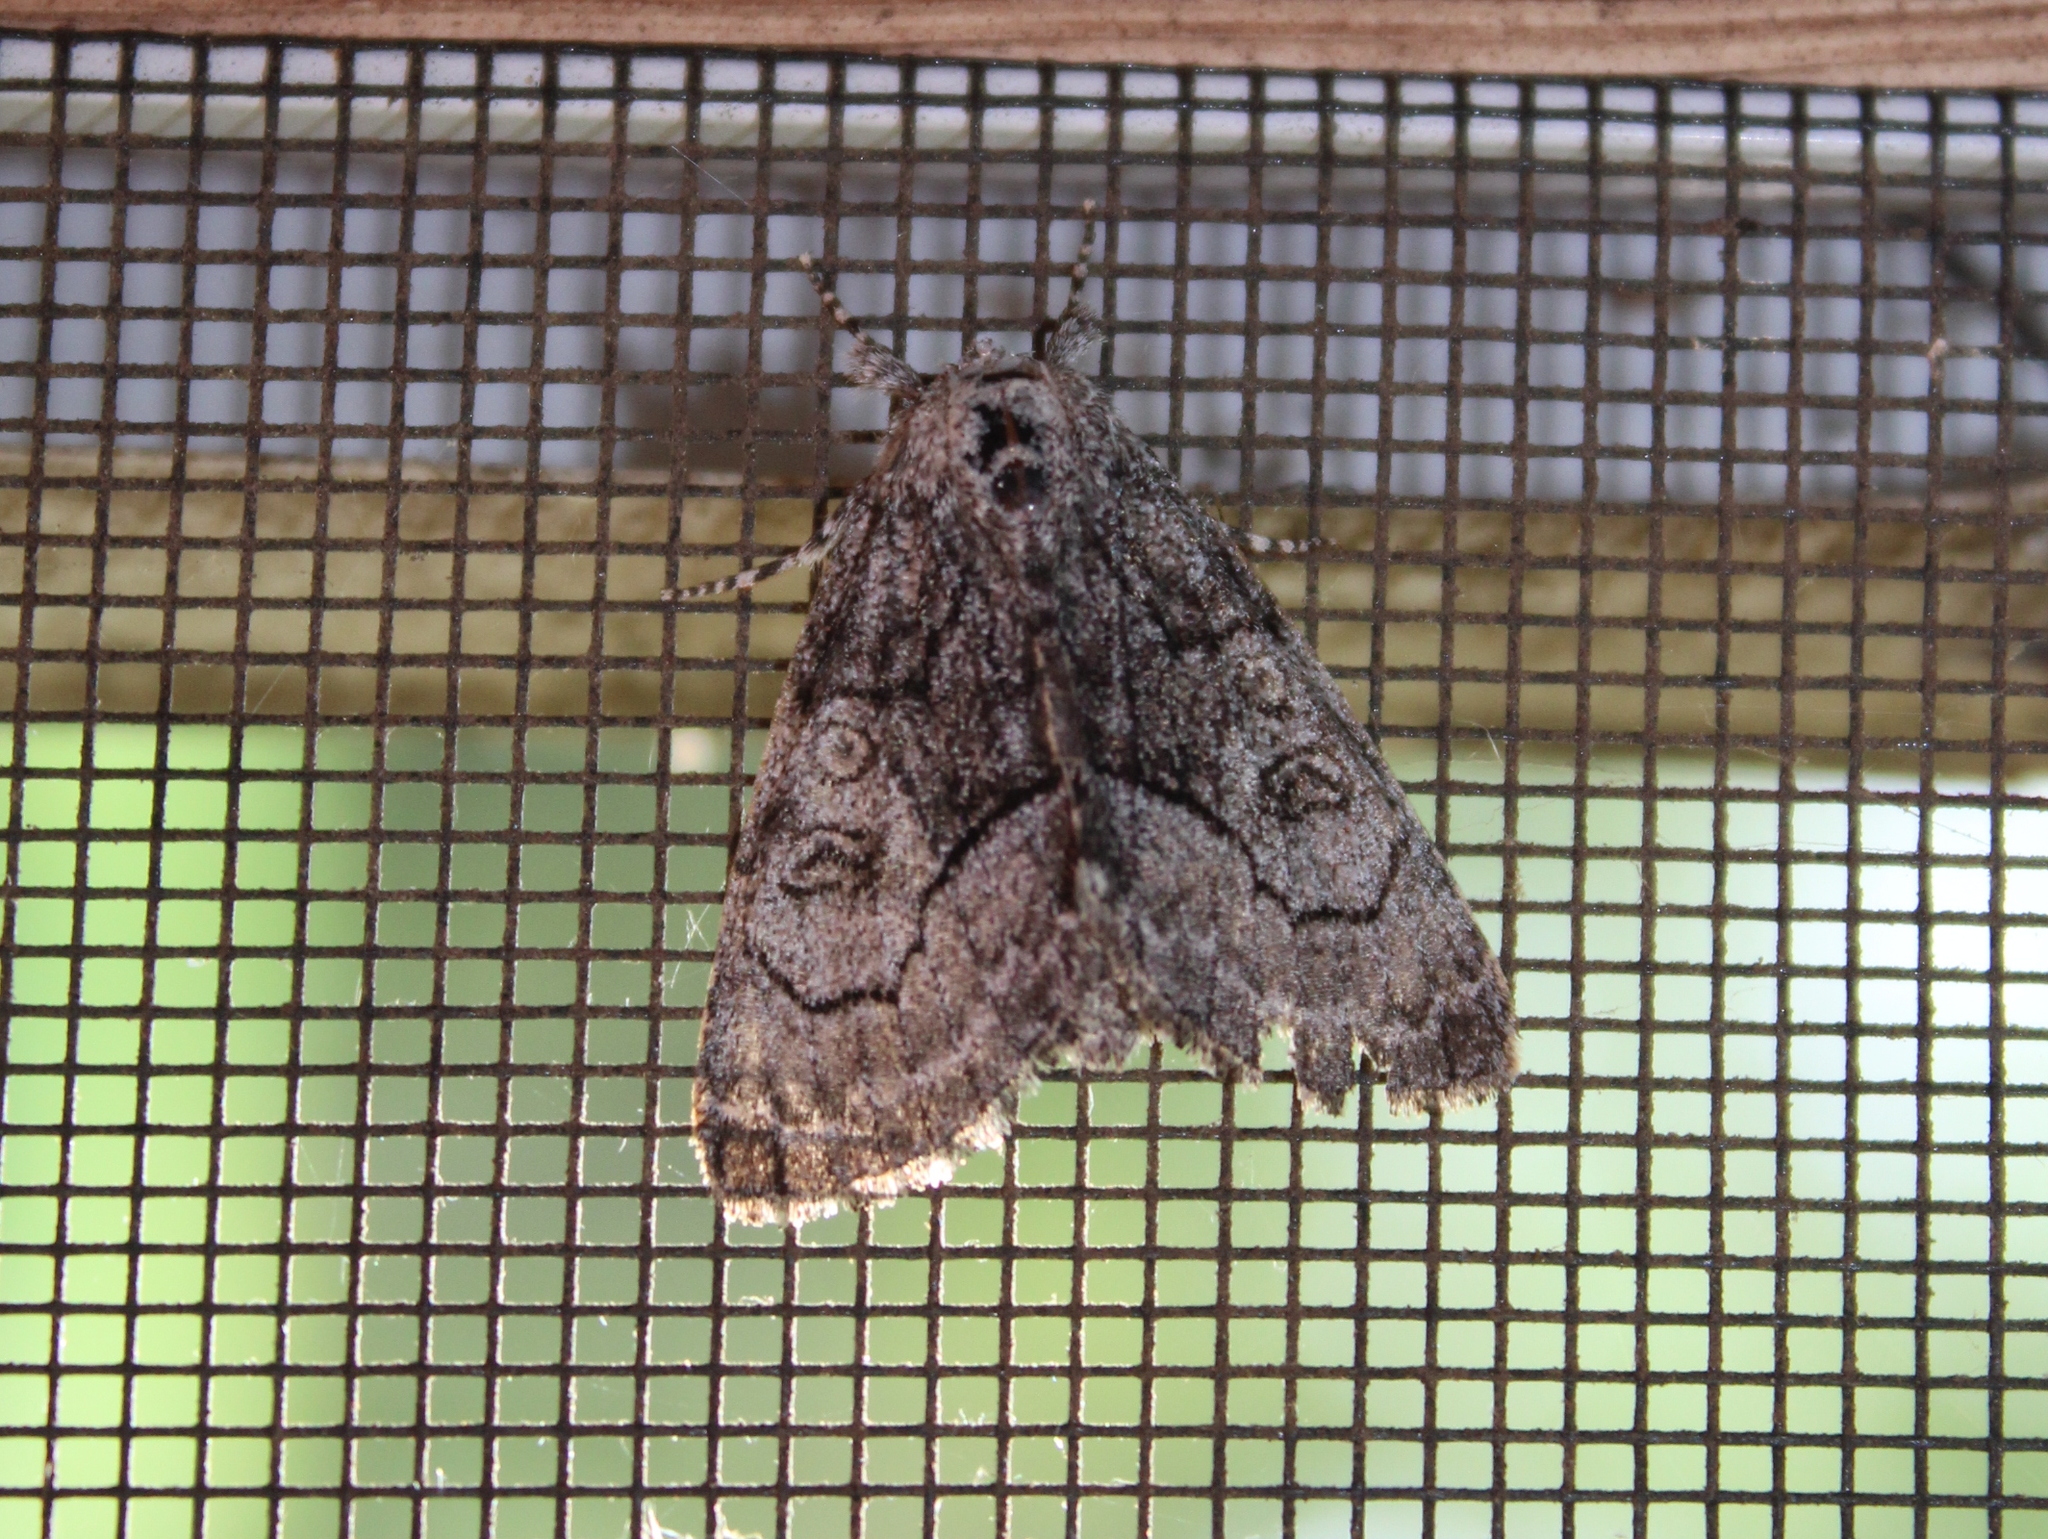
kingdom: Animalia
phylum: Arthropoda
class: Insecta
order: Lepidoptera
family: Noctuidae
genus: Raphia
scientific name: Raphia frater
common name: Brother
